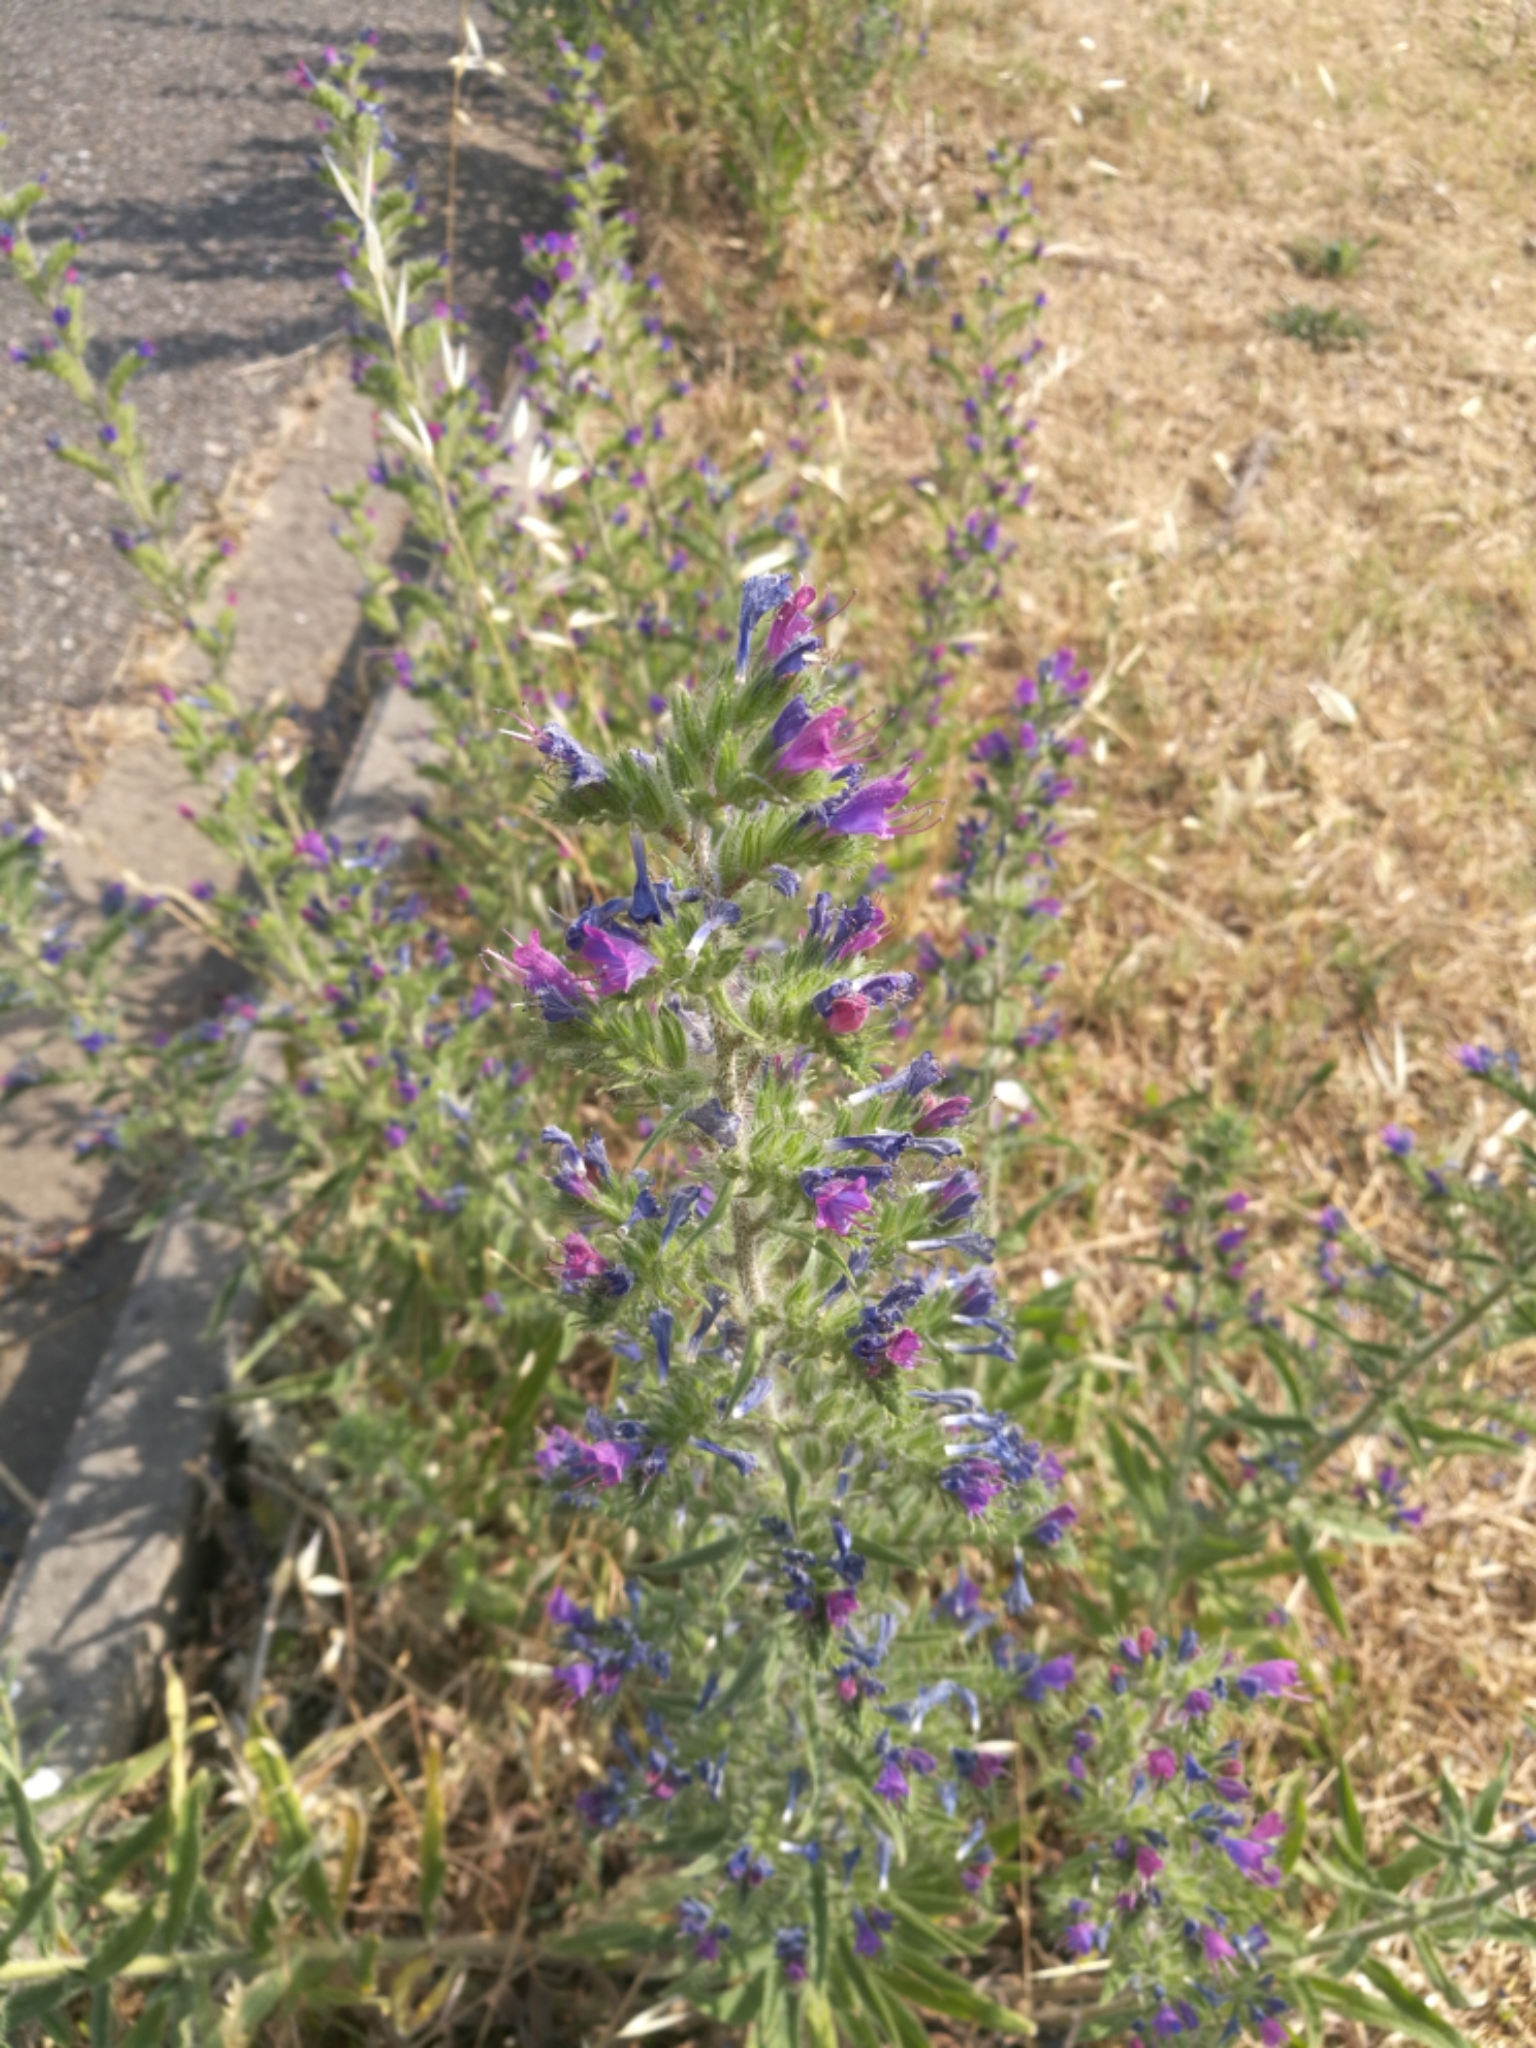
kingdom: Plantae
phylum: Tracheophyta
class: Magnoliopsida
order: Boraginales
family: Boraginaceae
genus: Echium
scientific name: Echium vulgare
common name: Common viper's bugloss
